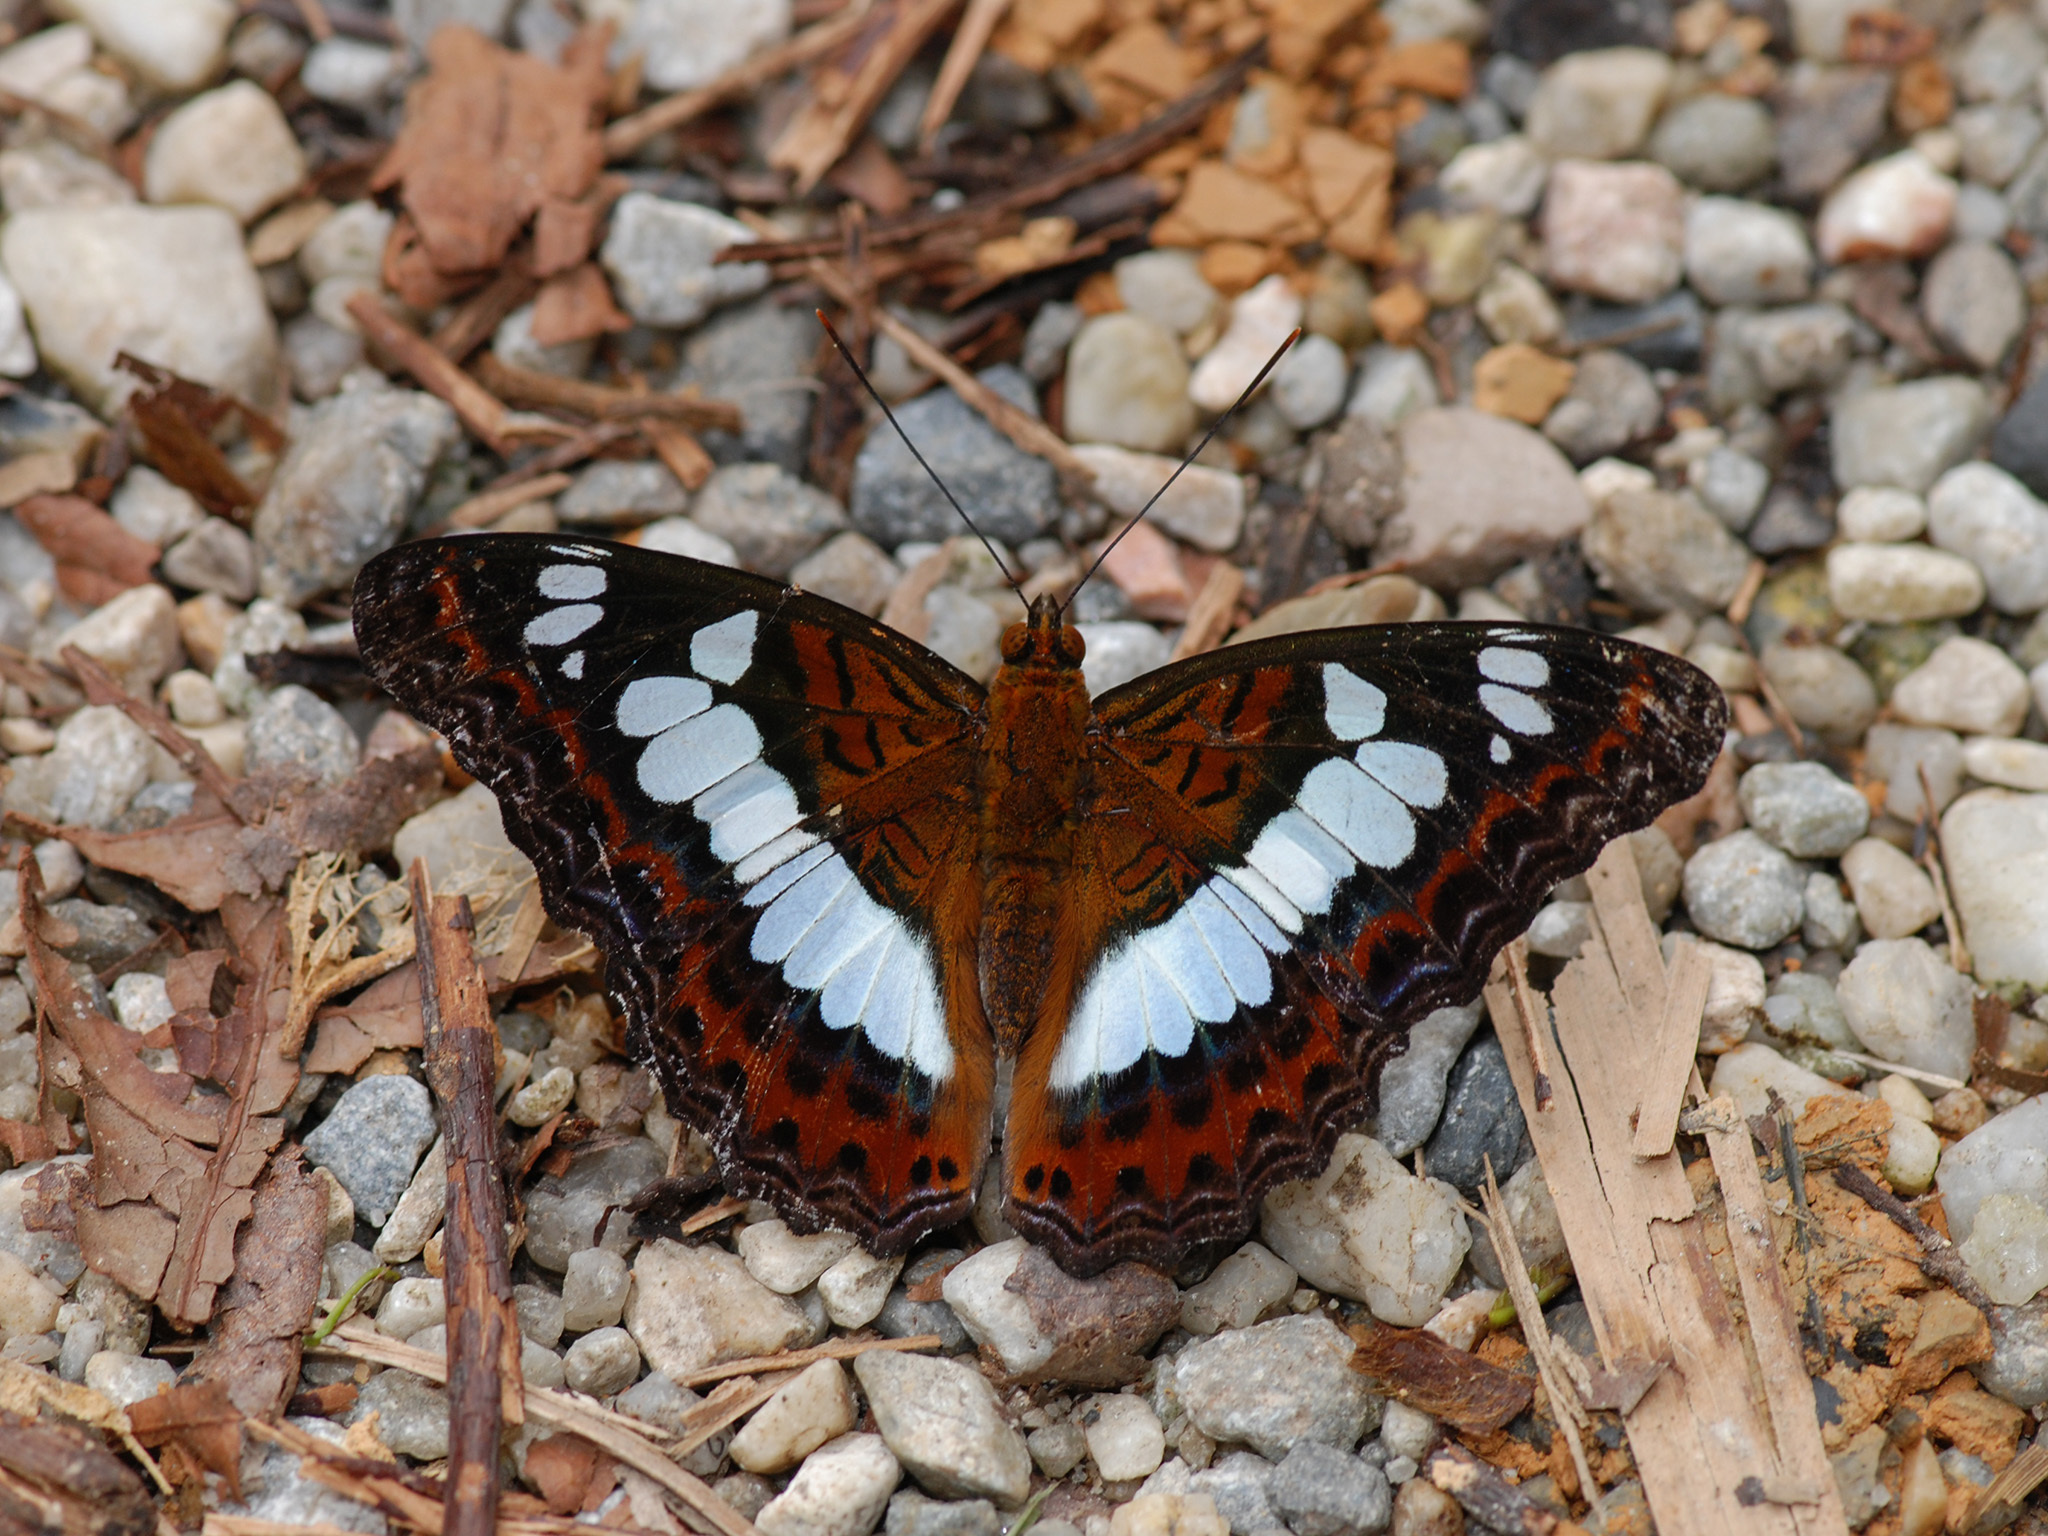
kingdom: Animalia
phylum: Arthropoda
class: Insecta
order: Lepidoptera
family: Nymphalidae
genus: Limenitis
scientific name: Limenitis Moduza procris
